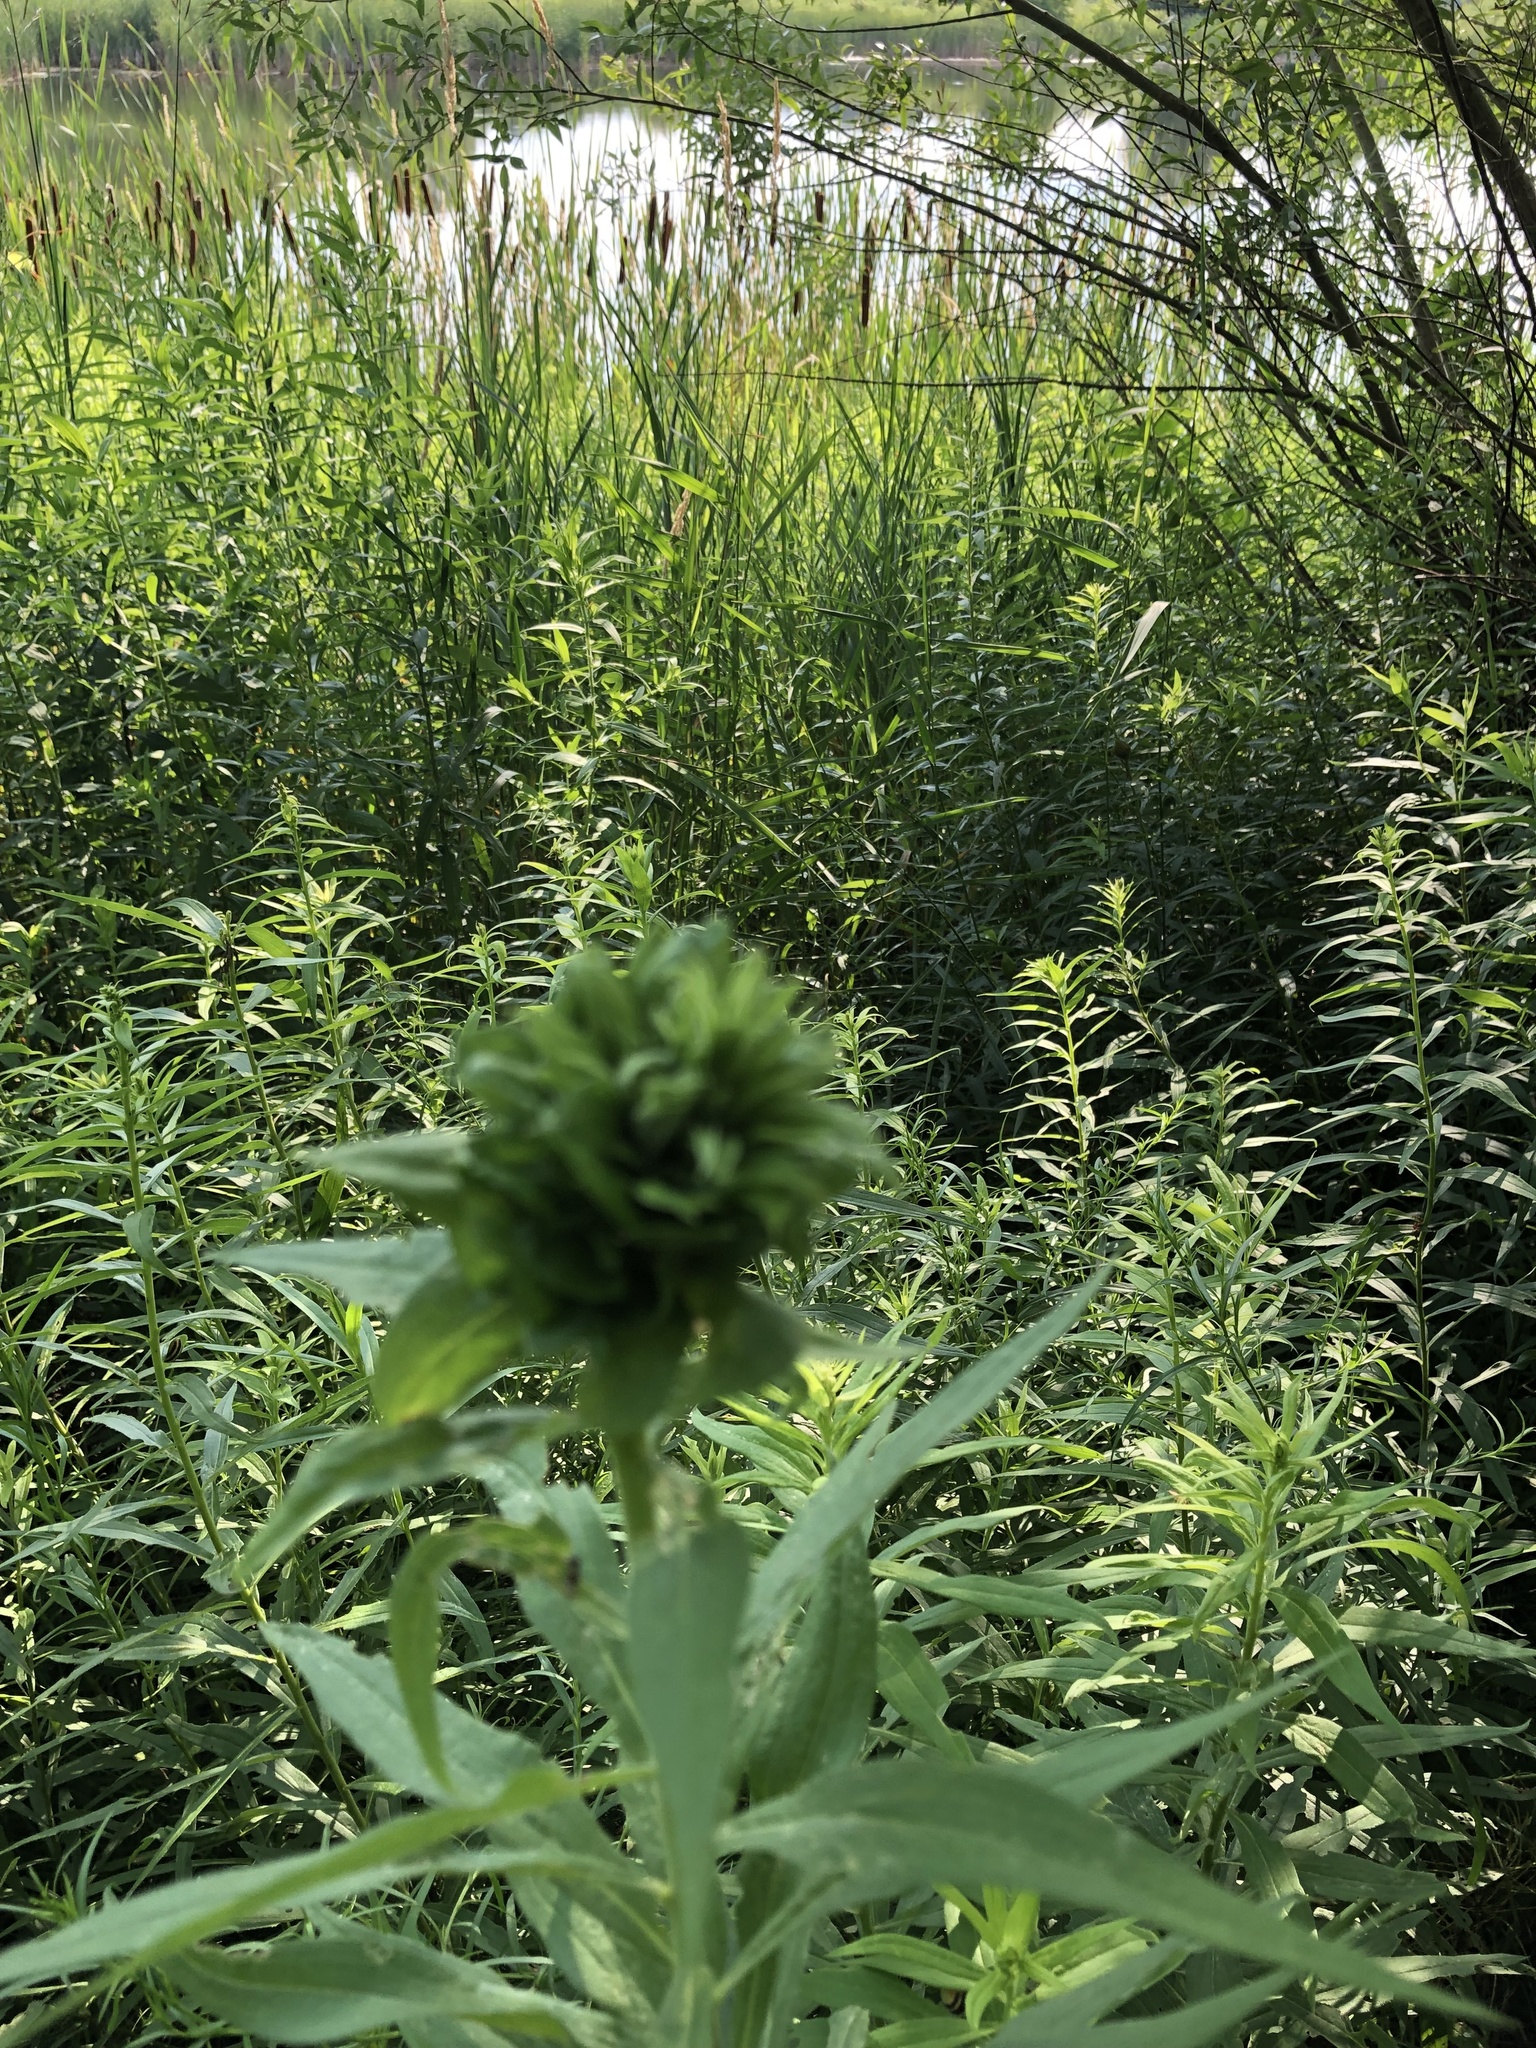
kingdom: Animalia
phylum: Arthropoda
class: Insecta
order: Diptera
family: Cecidomyiidae
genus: Rhopalomyia
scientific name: Rhopalomyia solidaginis
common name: Goldenrod bunch gall midge
